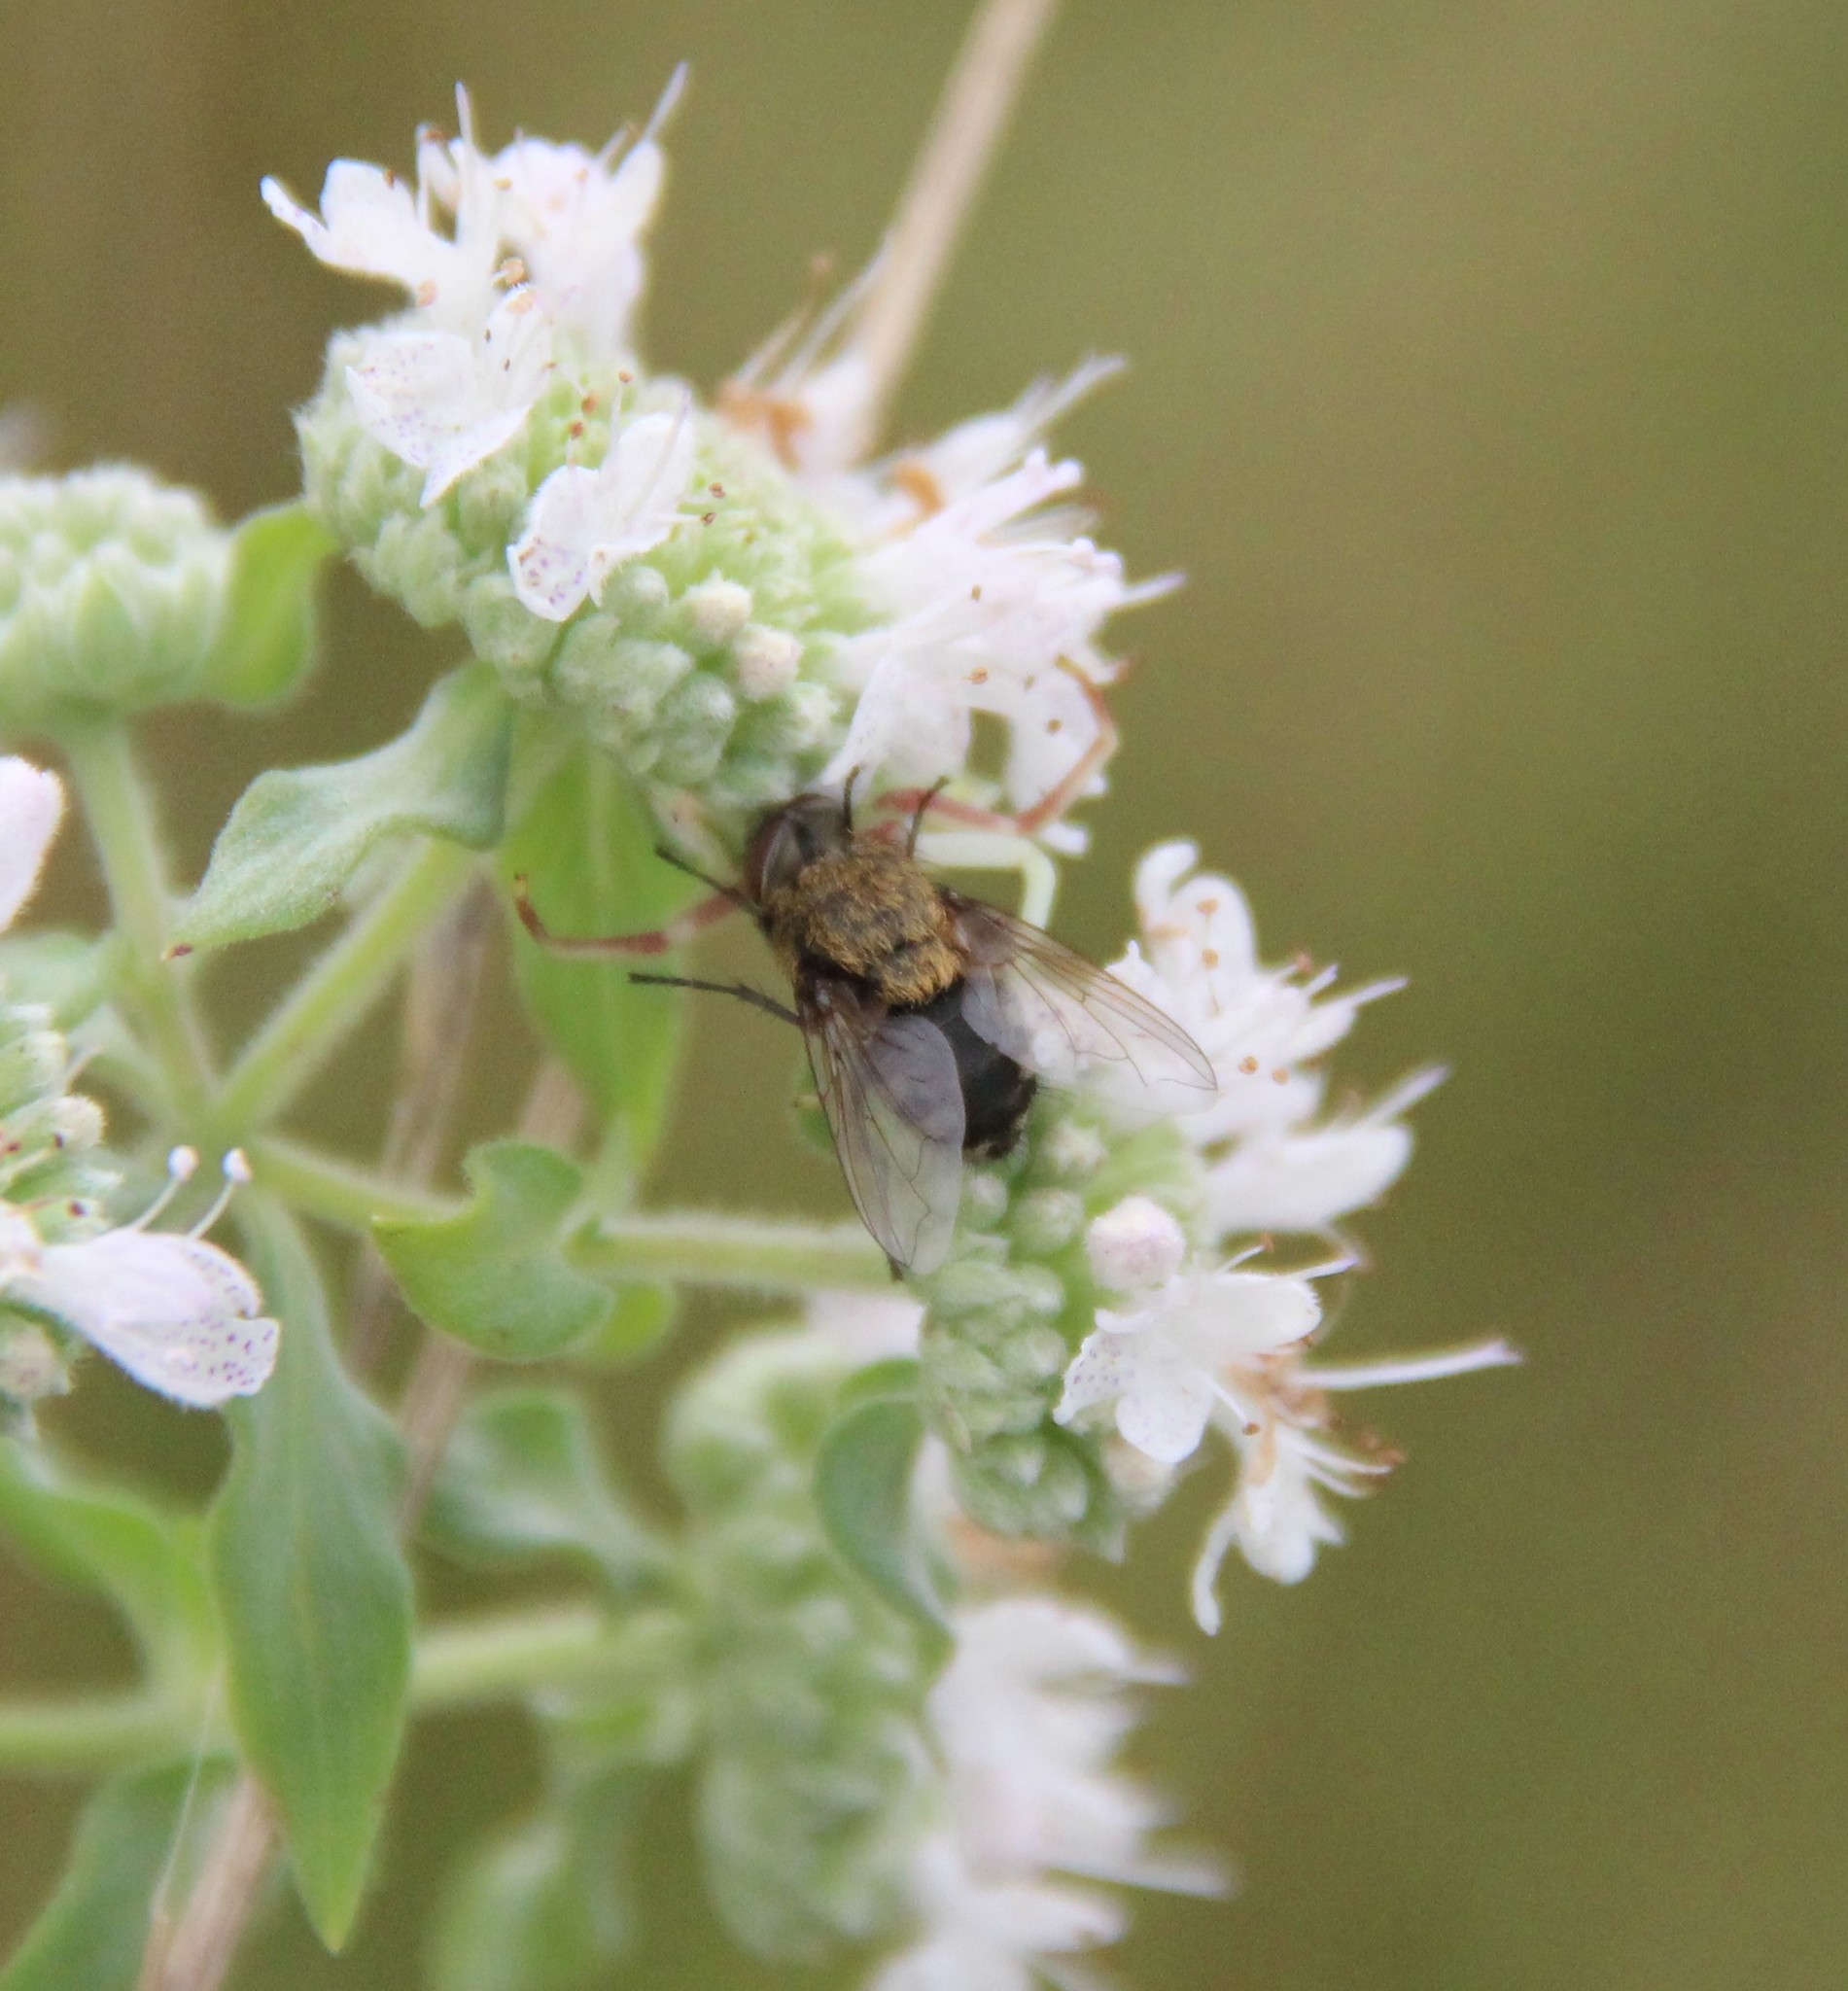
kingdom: Animalia
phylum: Arthropoda
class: Insecta
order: Hymenoptera
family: Apidae
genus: Xylocopa
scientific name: Xylocopa virginica
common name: Carpenter bee
